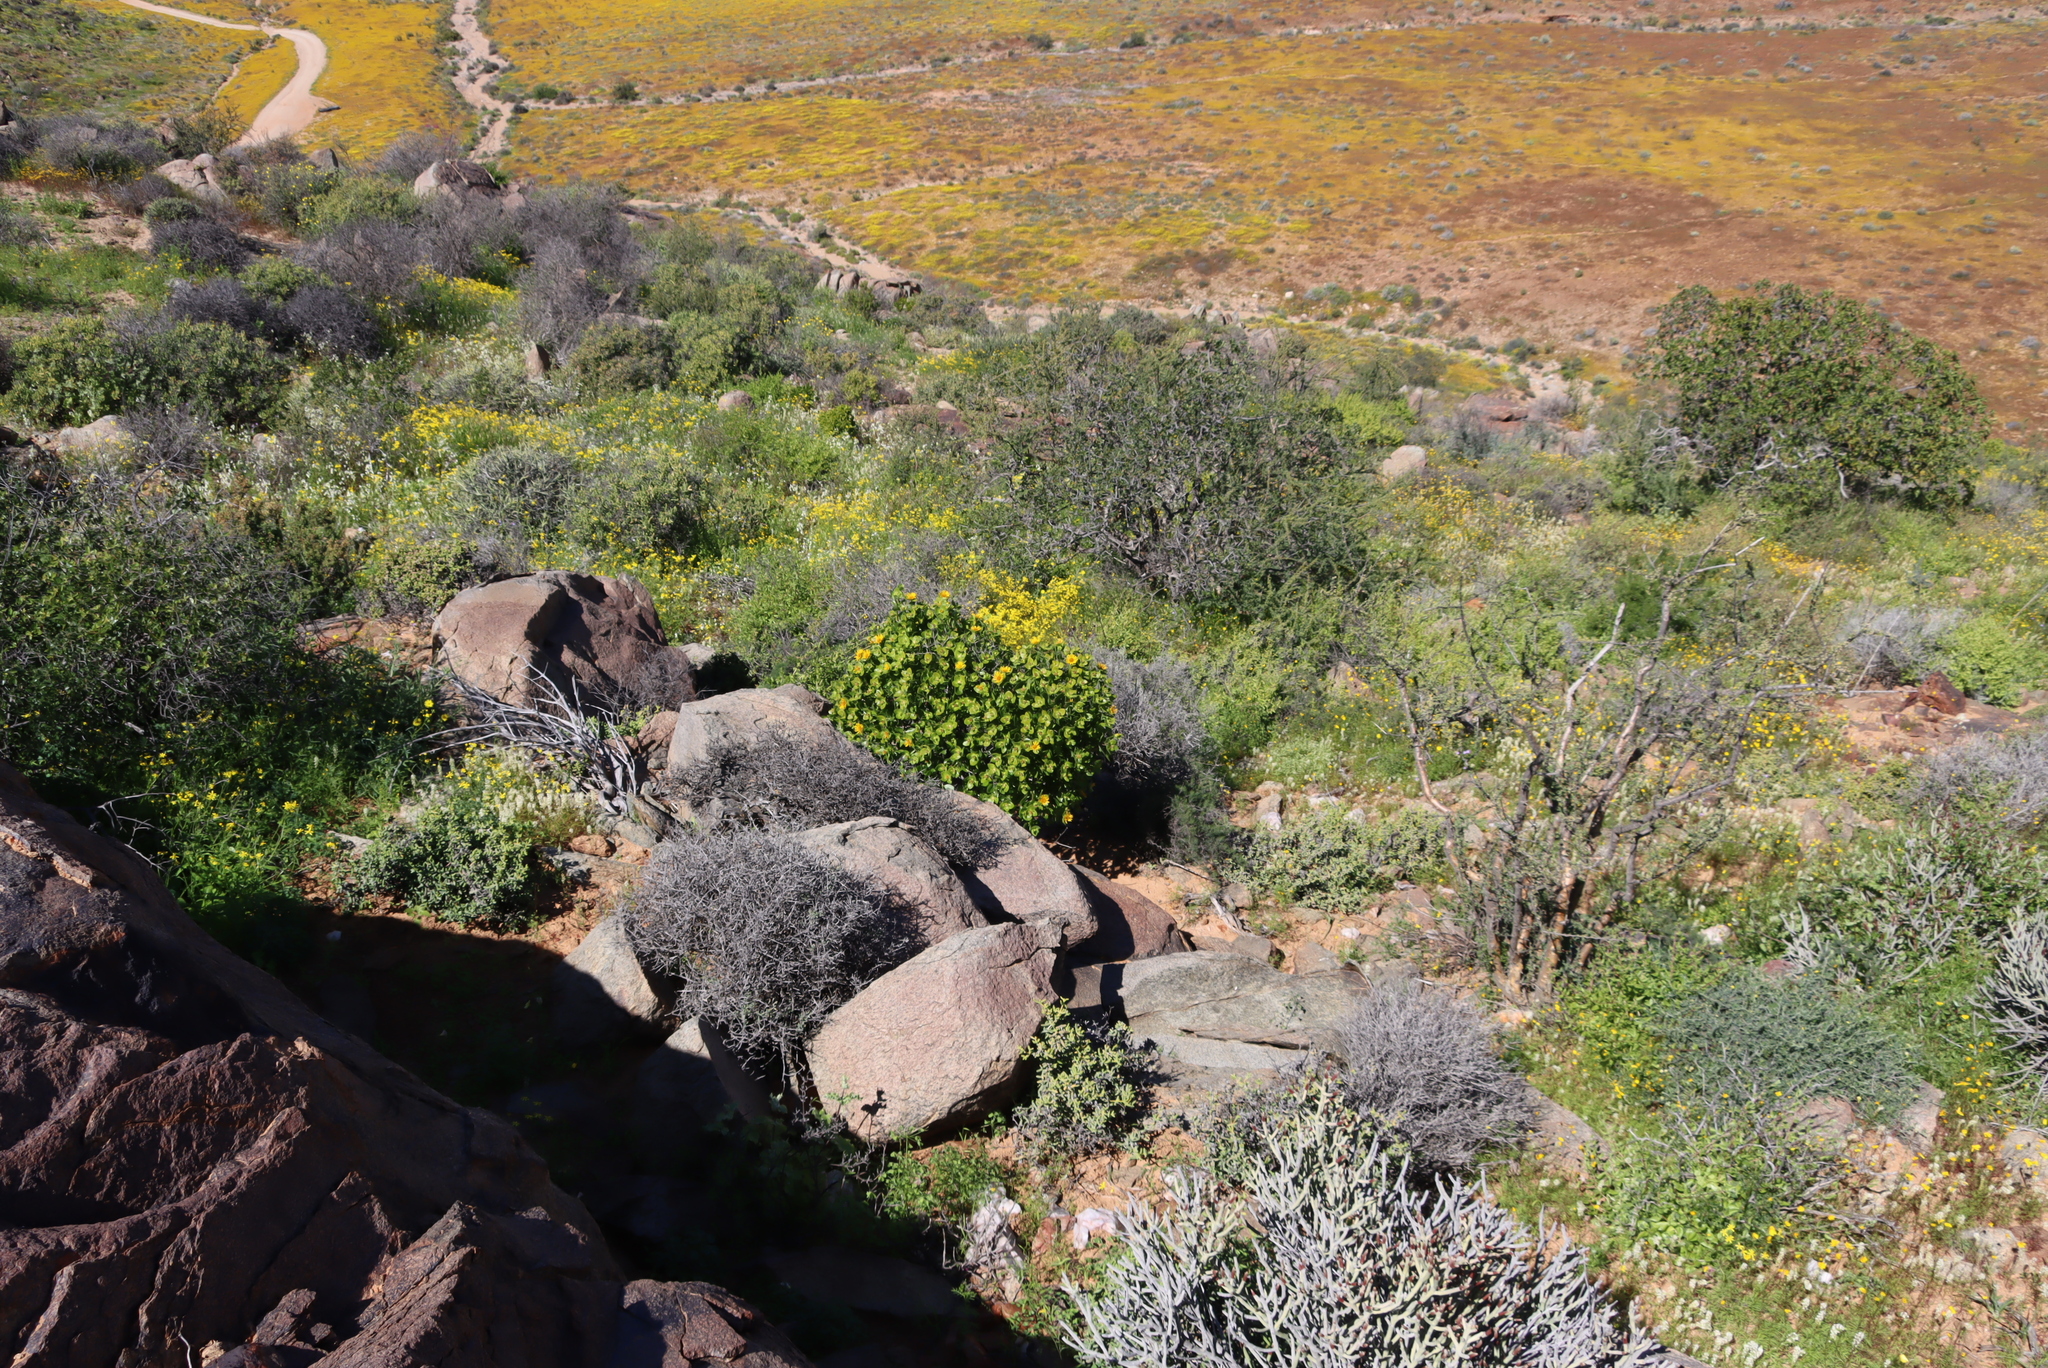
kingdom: Plantae
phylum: Tracheophyta
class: Magnoliopsida
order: Asterales
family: Asteraceae
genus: Didelta
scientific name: Didelta spinosa
